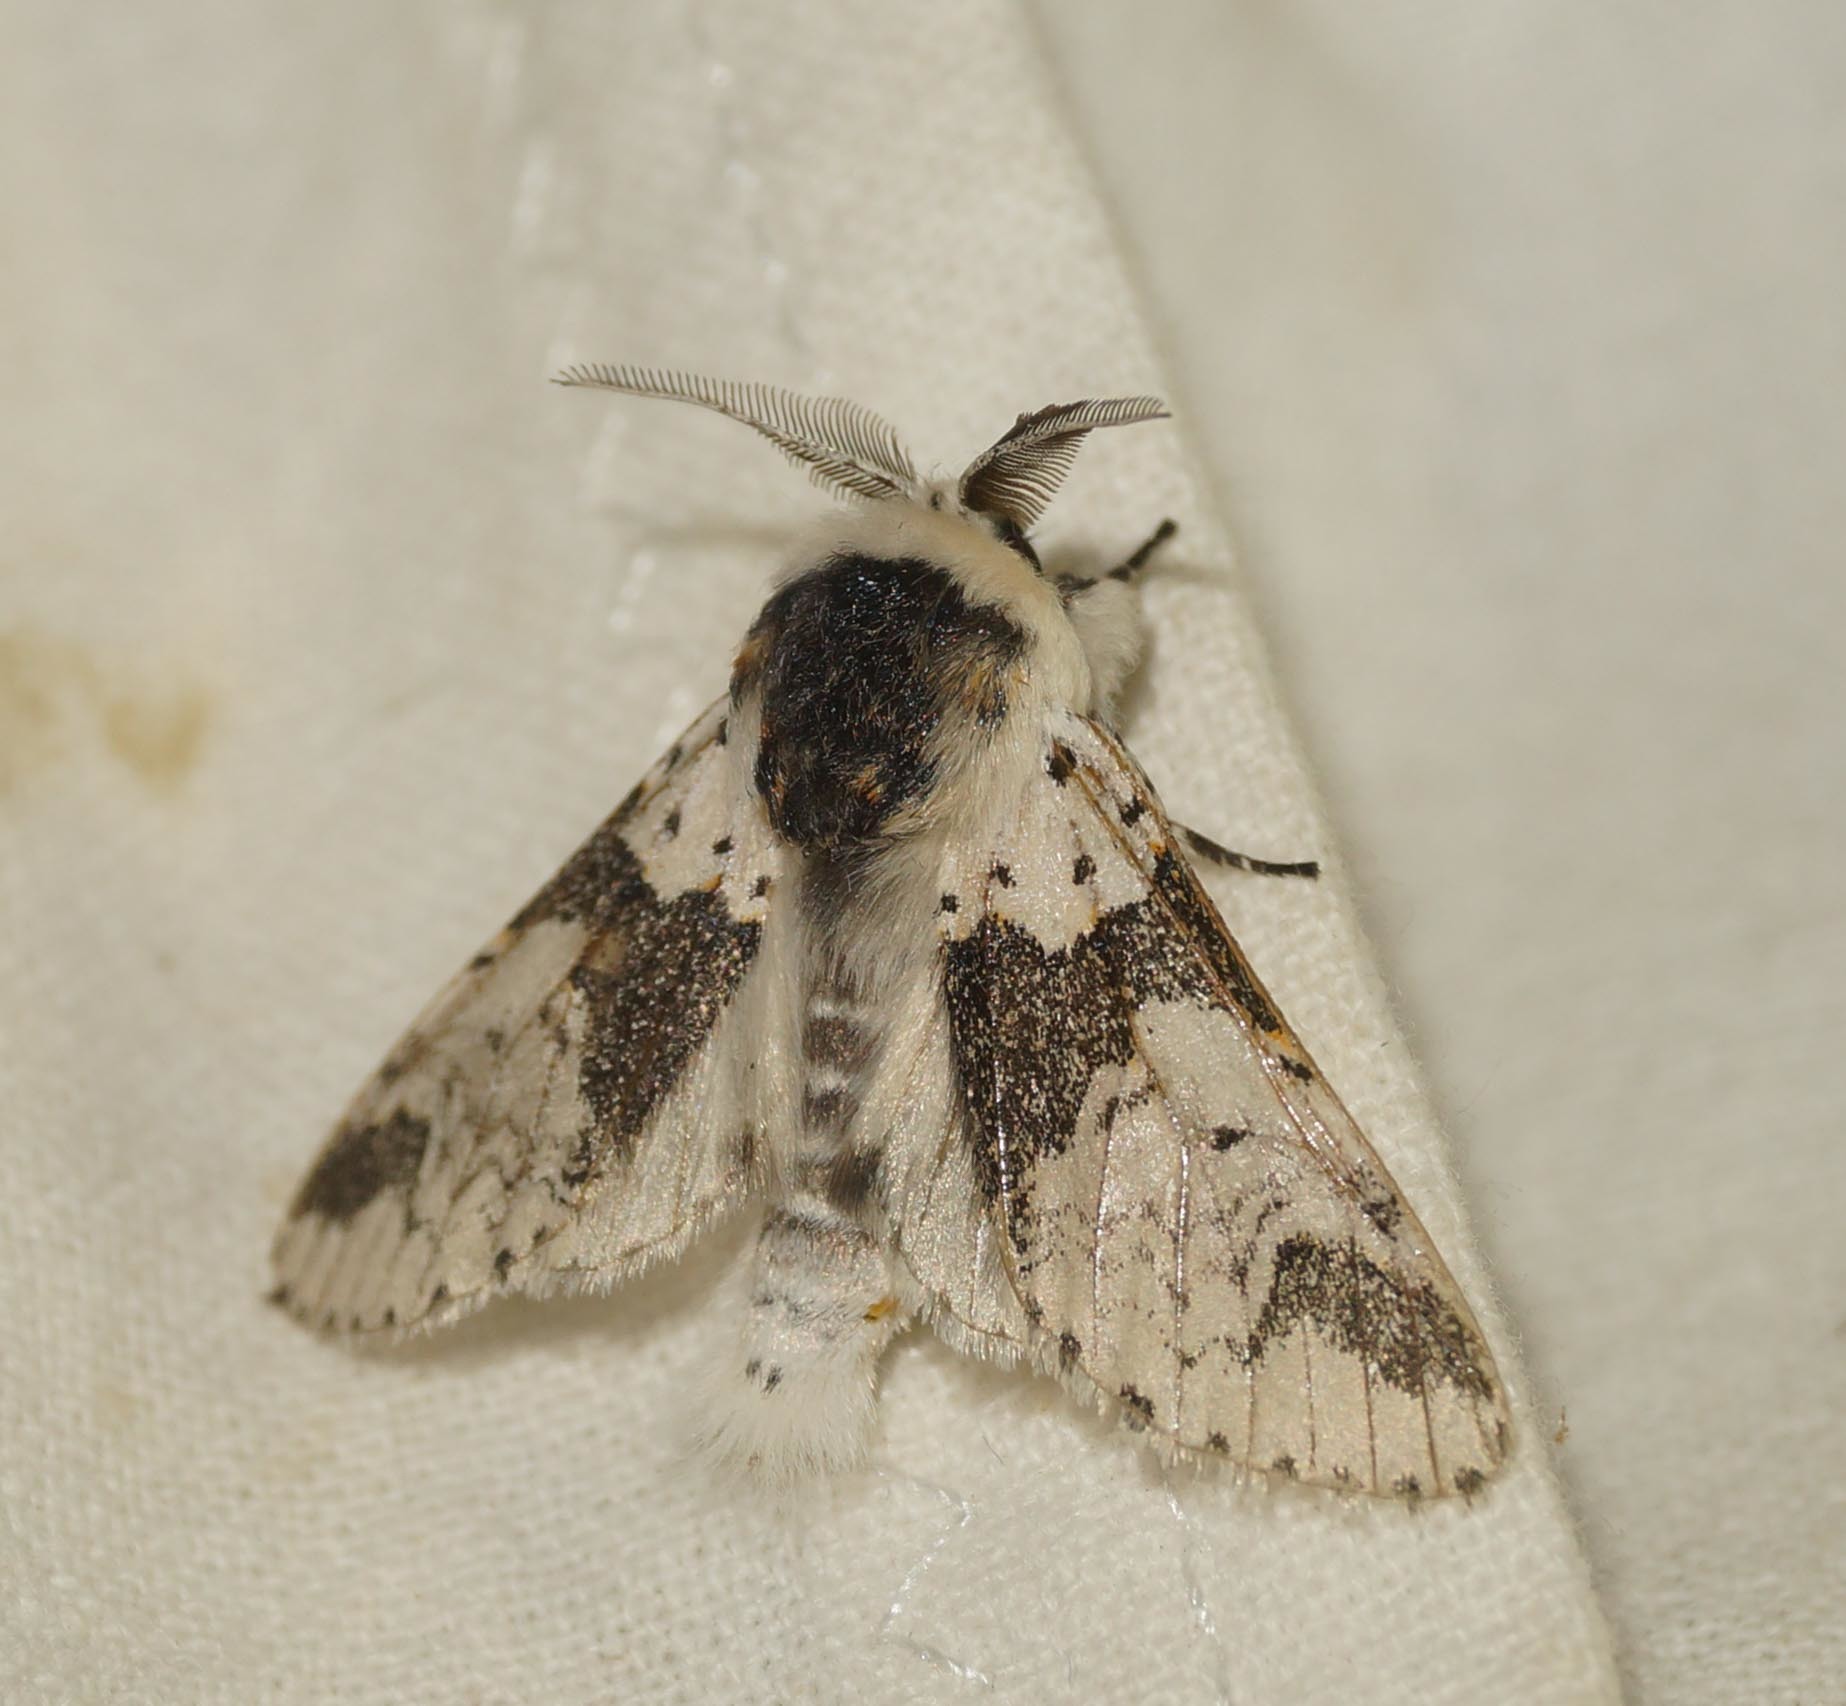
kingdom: Animalia
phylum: Arthropoda
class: Insecta
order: Lepidoptera
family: Notodontidae
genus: Furcula
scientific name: Furcula bicuspis
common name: Alder kitten
